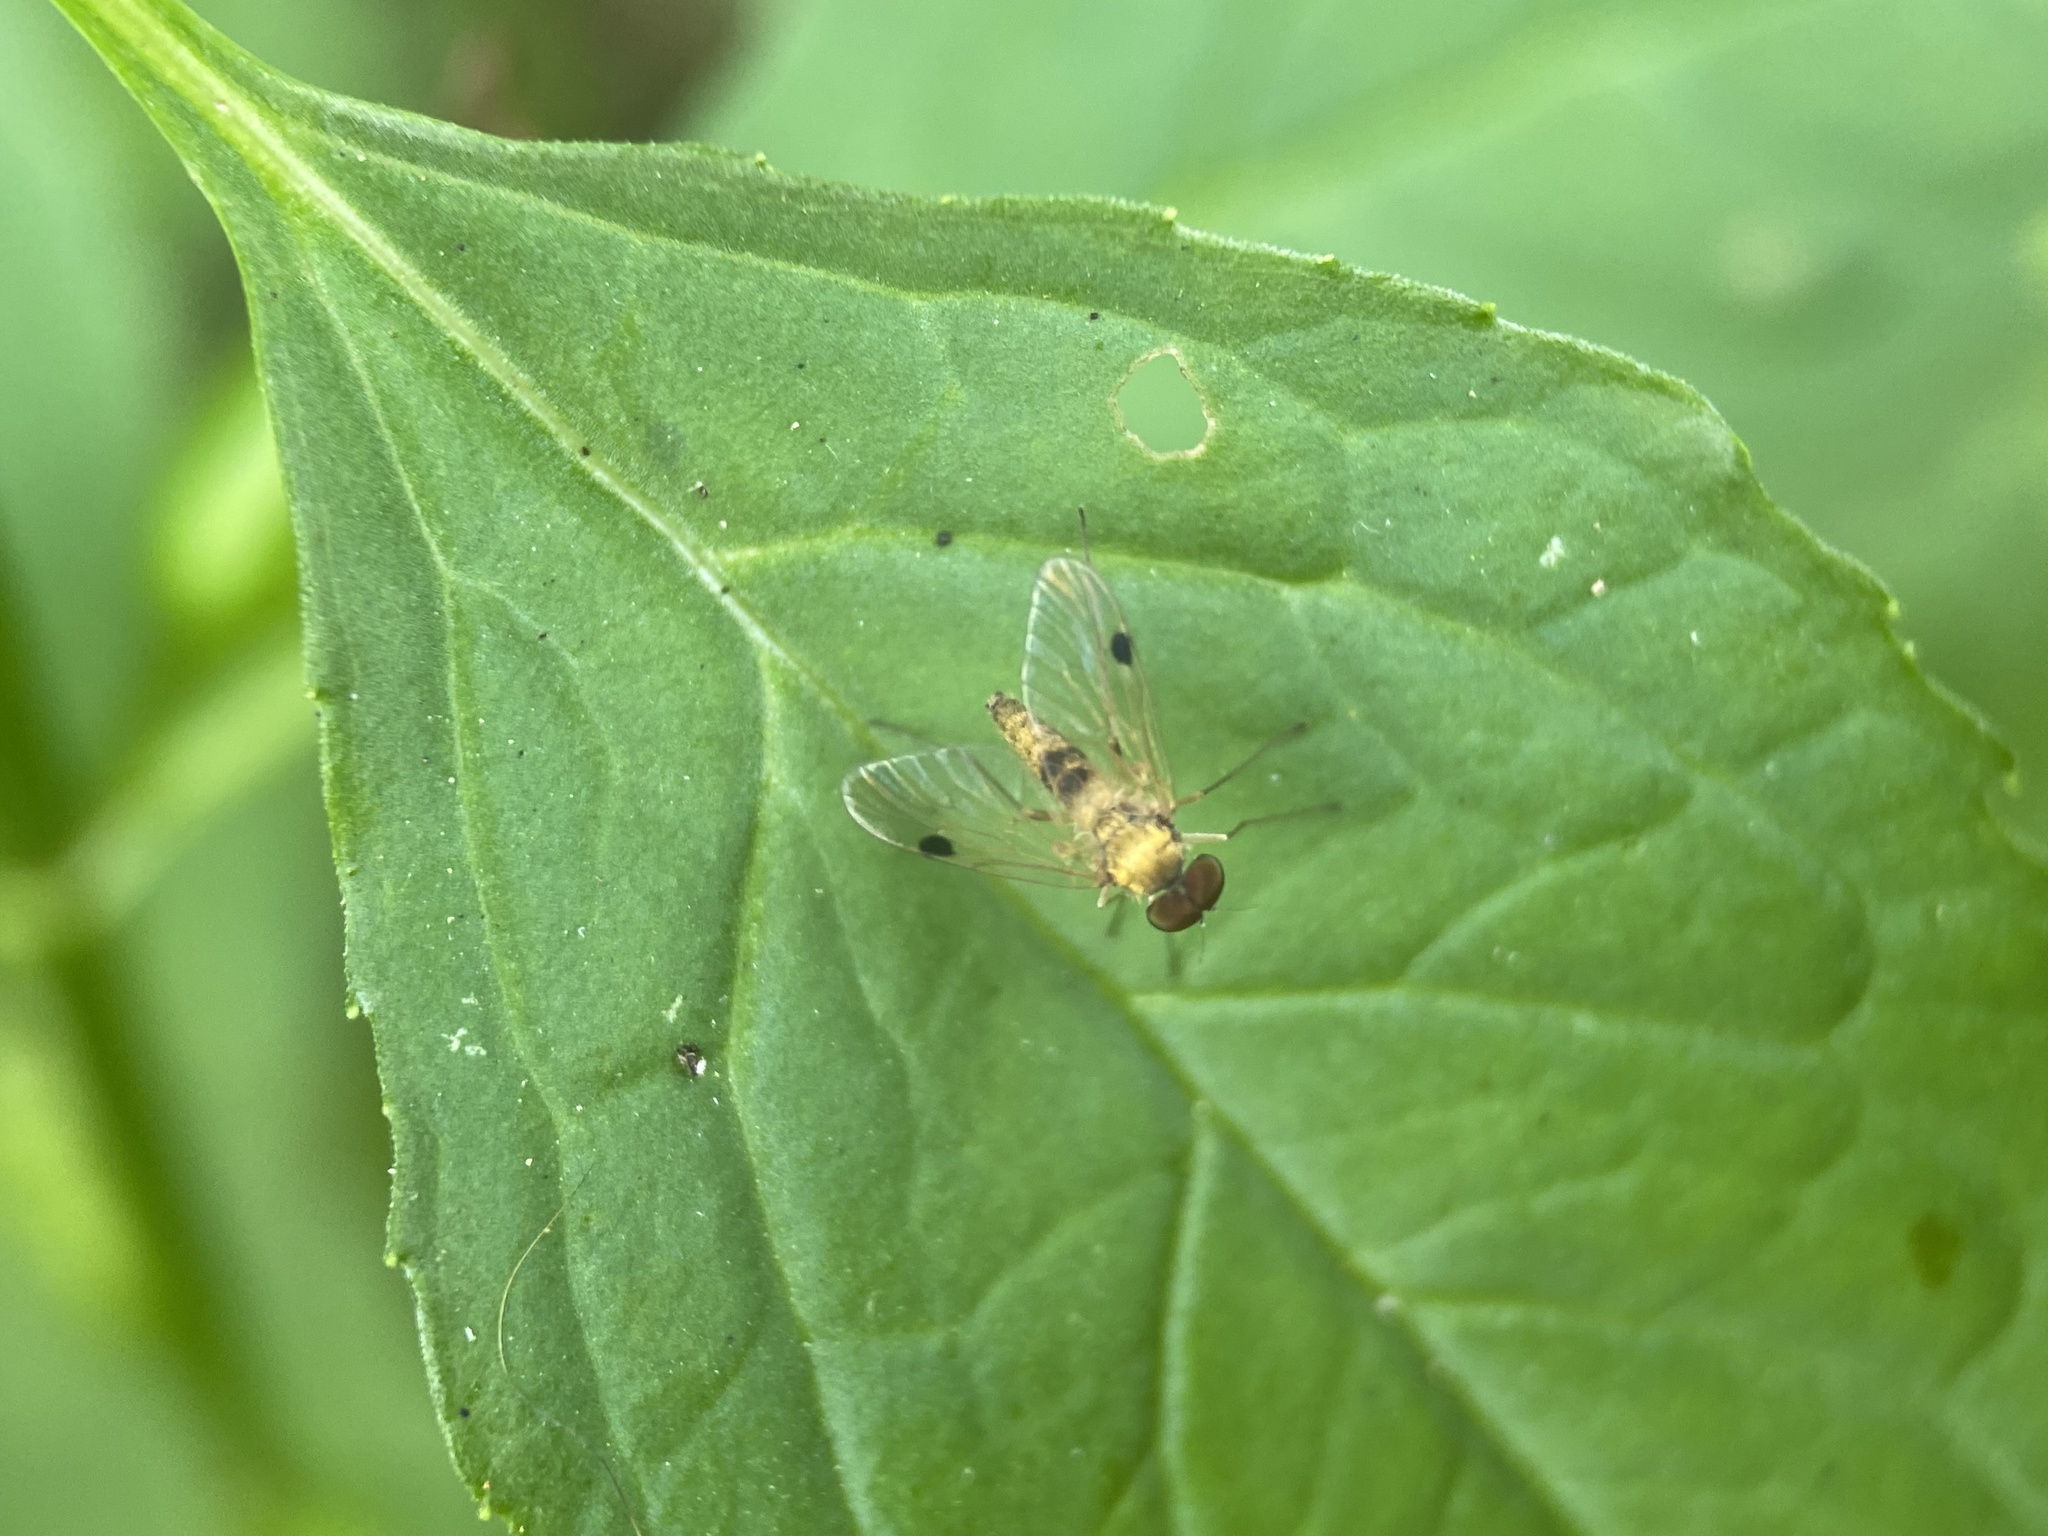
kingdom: Animalia
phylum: Arthropoda
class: Insecta
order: Diptera
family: Rhagionidae
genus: Chrysopilus
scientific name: Chrysopilus modestus
